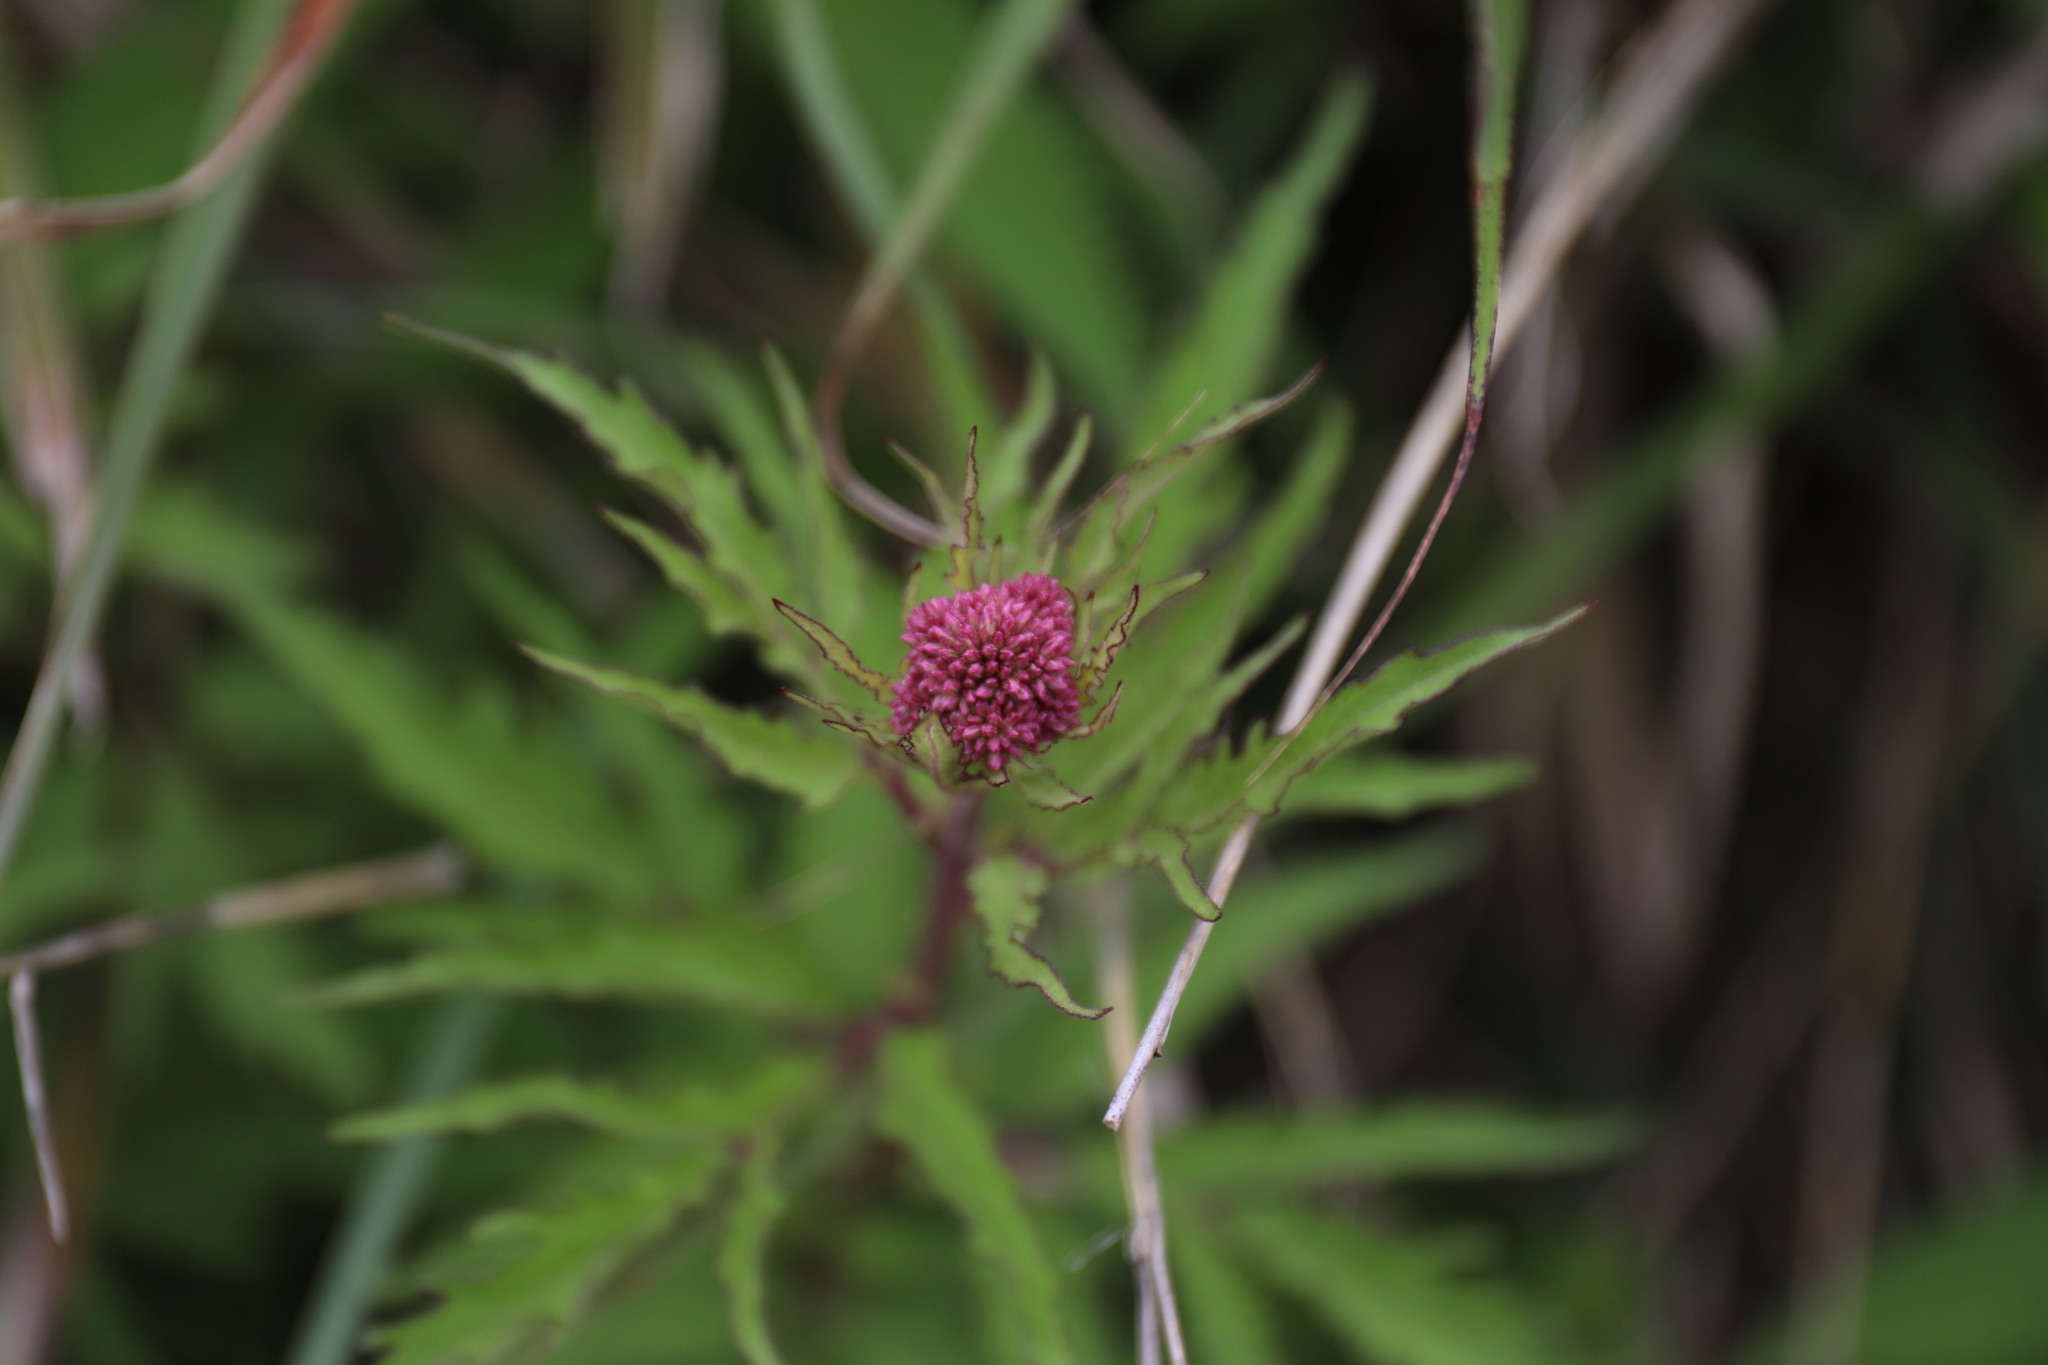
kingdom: Plantae
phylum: Tracheophyta
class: Magnoliopsida
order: Asterales
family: Asteraceae
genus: Eupatorium
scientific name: Eupatorium formosanum
